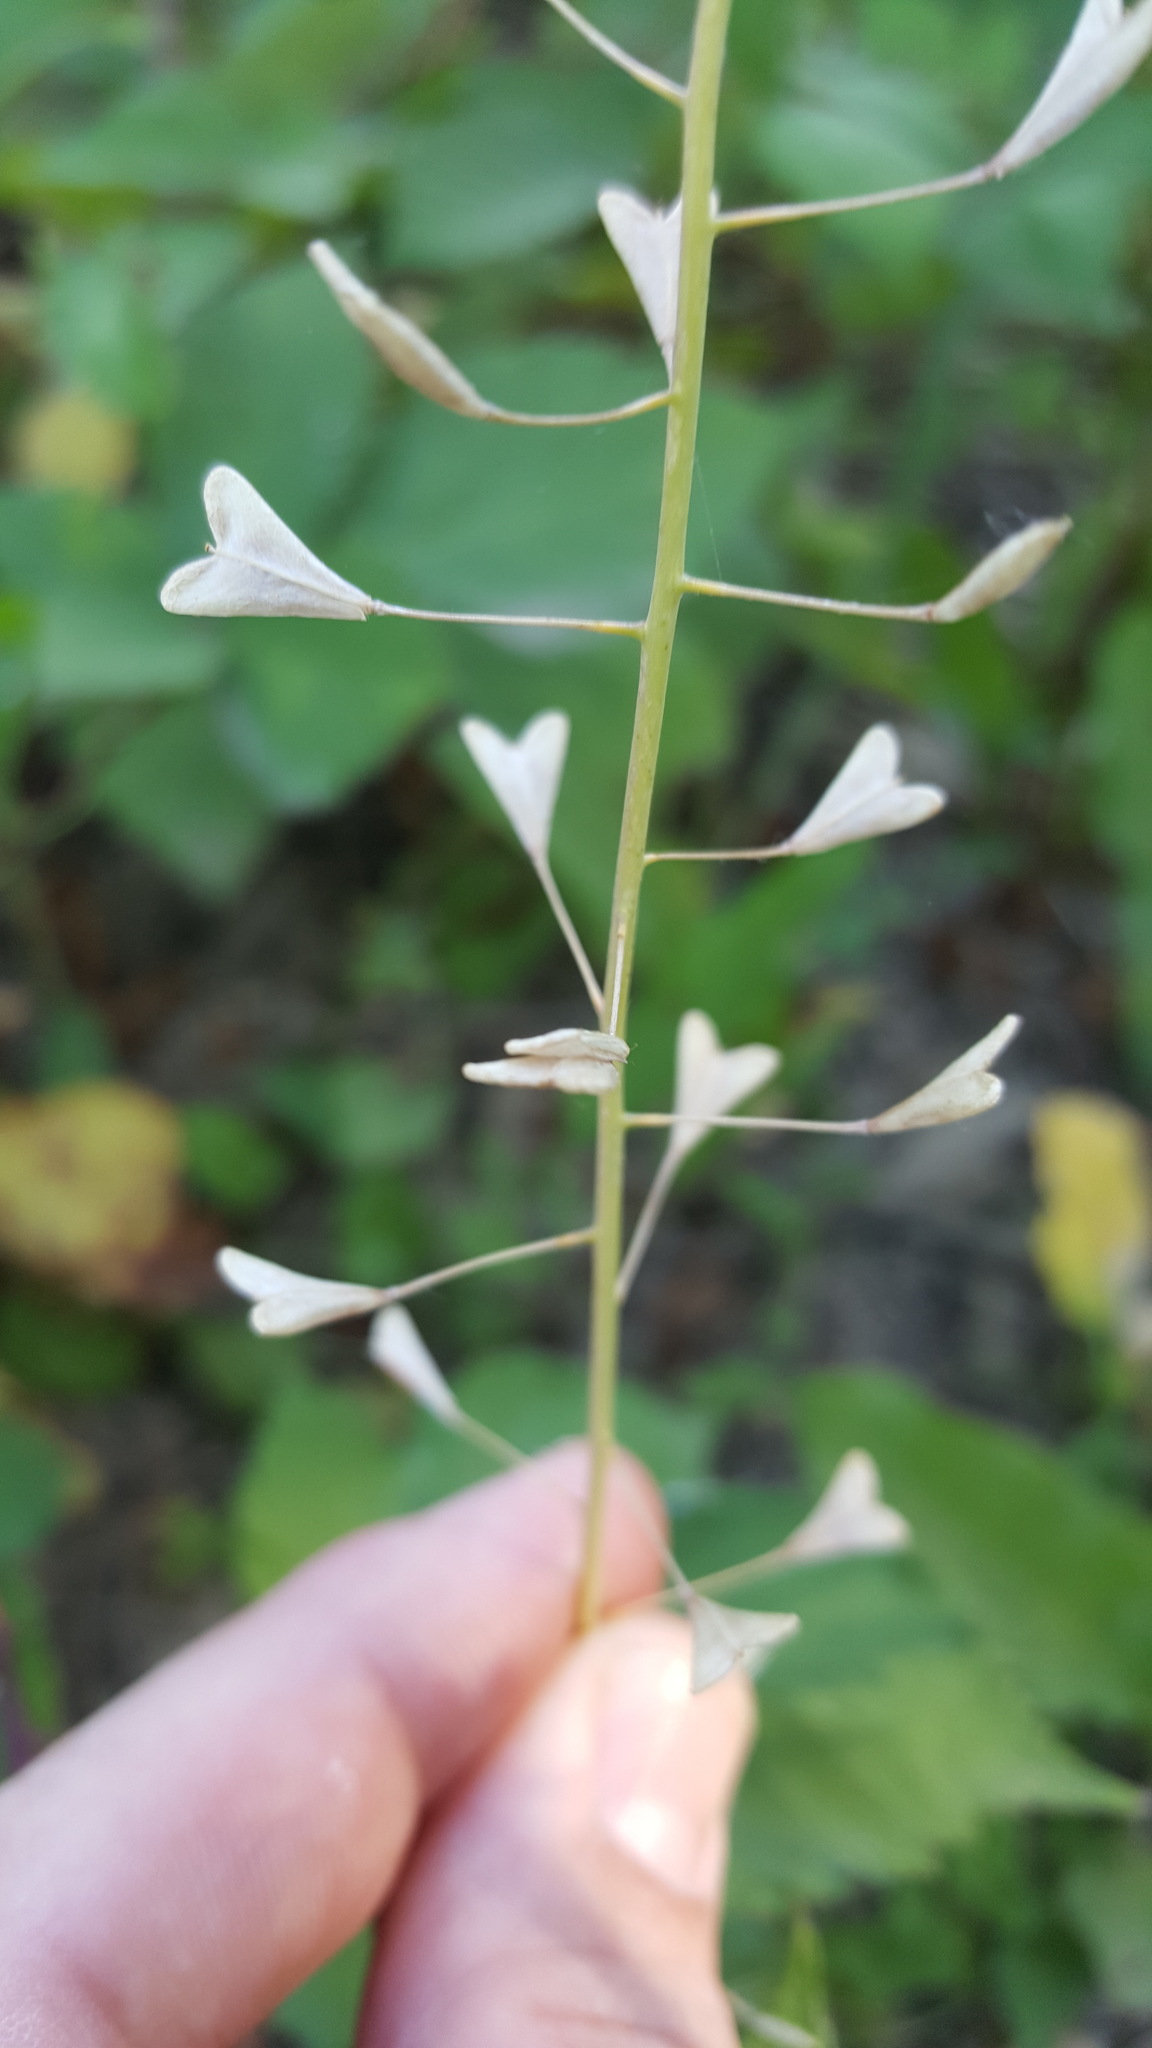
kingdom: Plantae
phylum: Tracheophyta
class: Magnoliopsida
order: Brassicales
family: Brassicaceae
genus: Capsella
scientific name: Capsella bursa-pastoris
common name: Shepherd's purse
